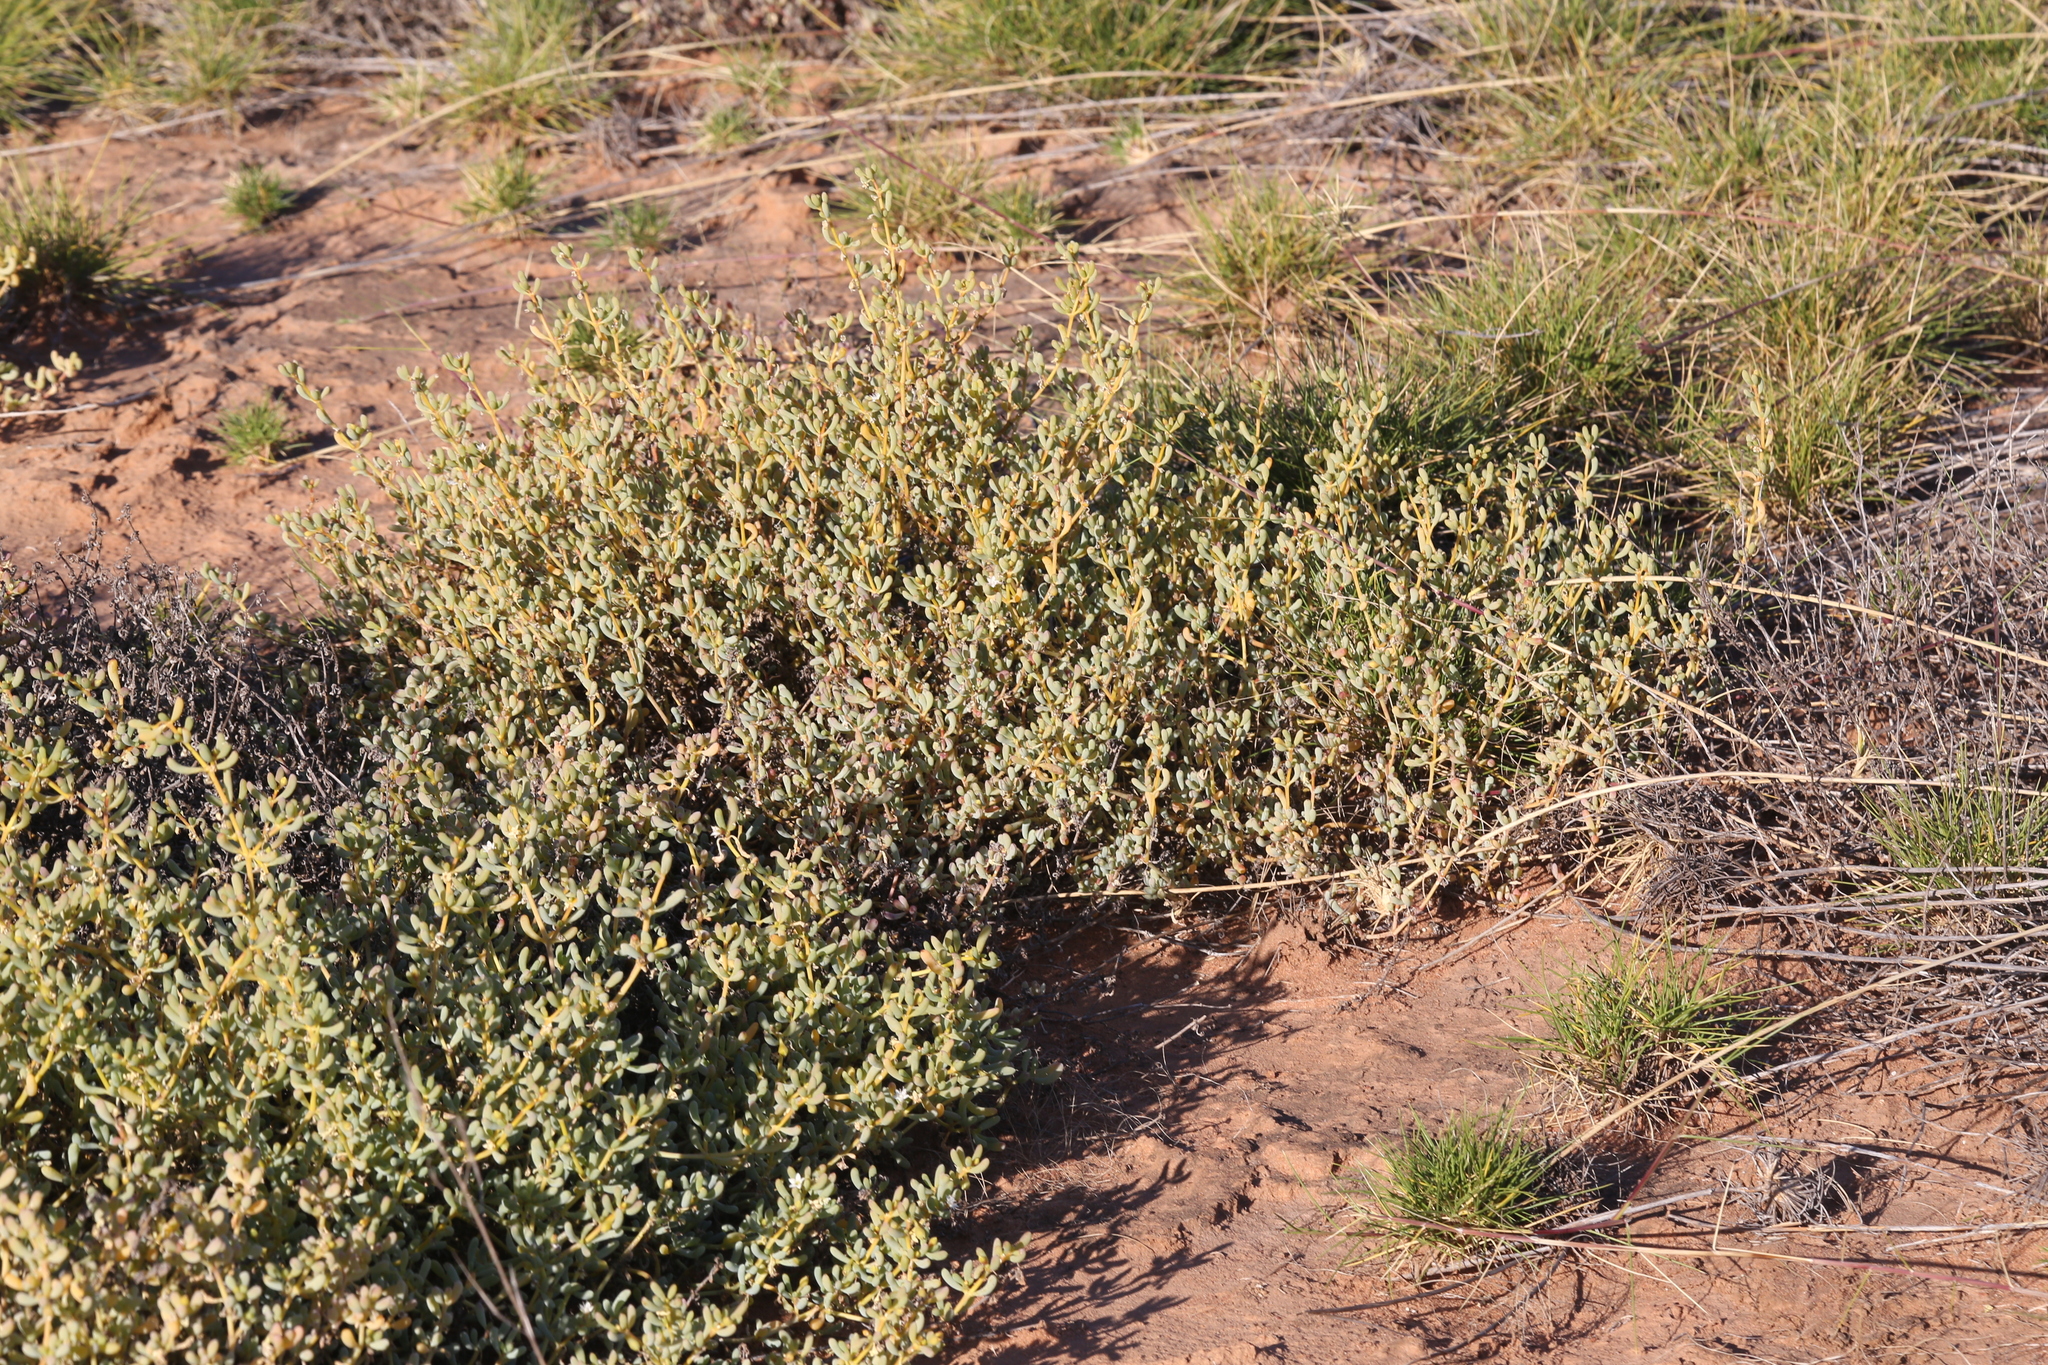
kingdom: Plantae
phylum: Tracheophyta
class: Magnoliopsida
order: Caryophyllales
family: Aizoaceae
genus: Trianthema
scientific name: Trianthema turgidifolium
